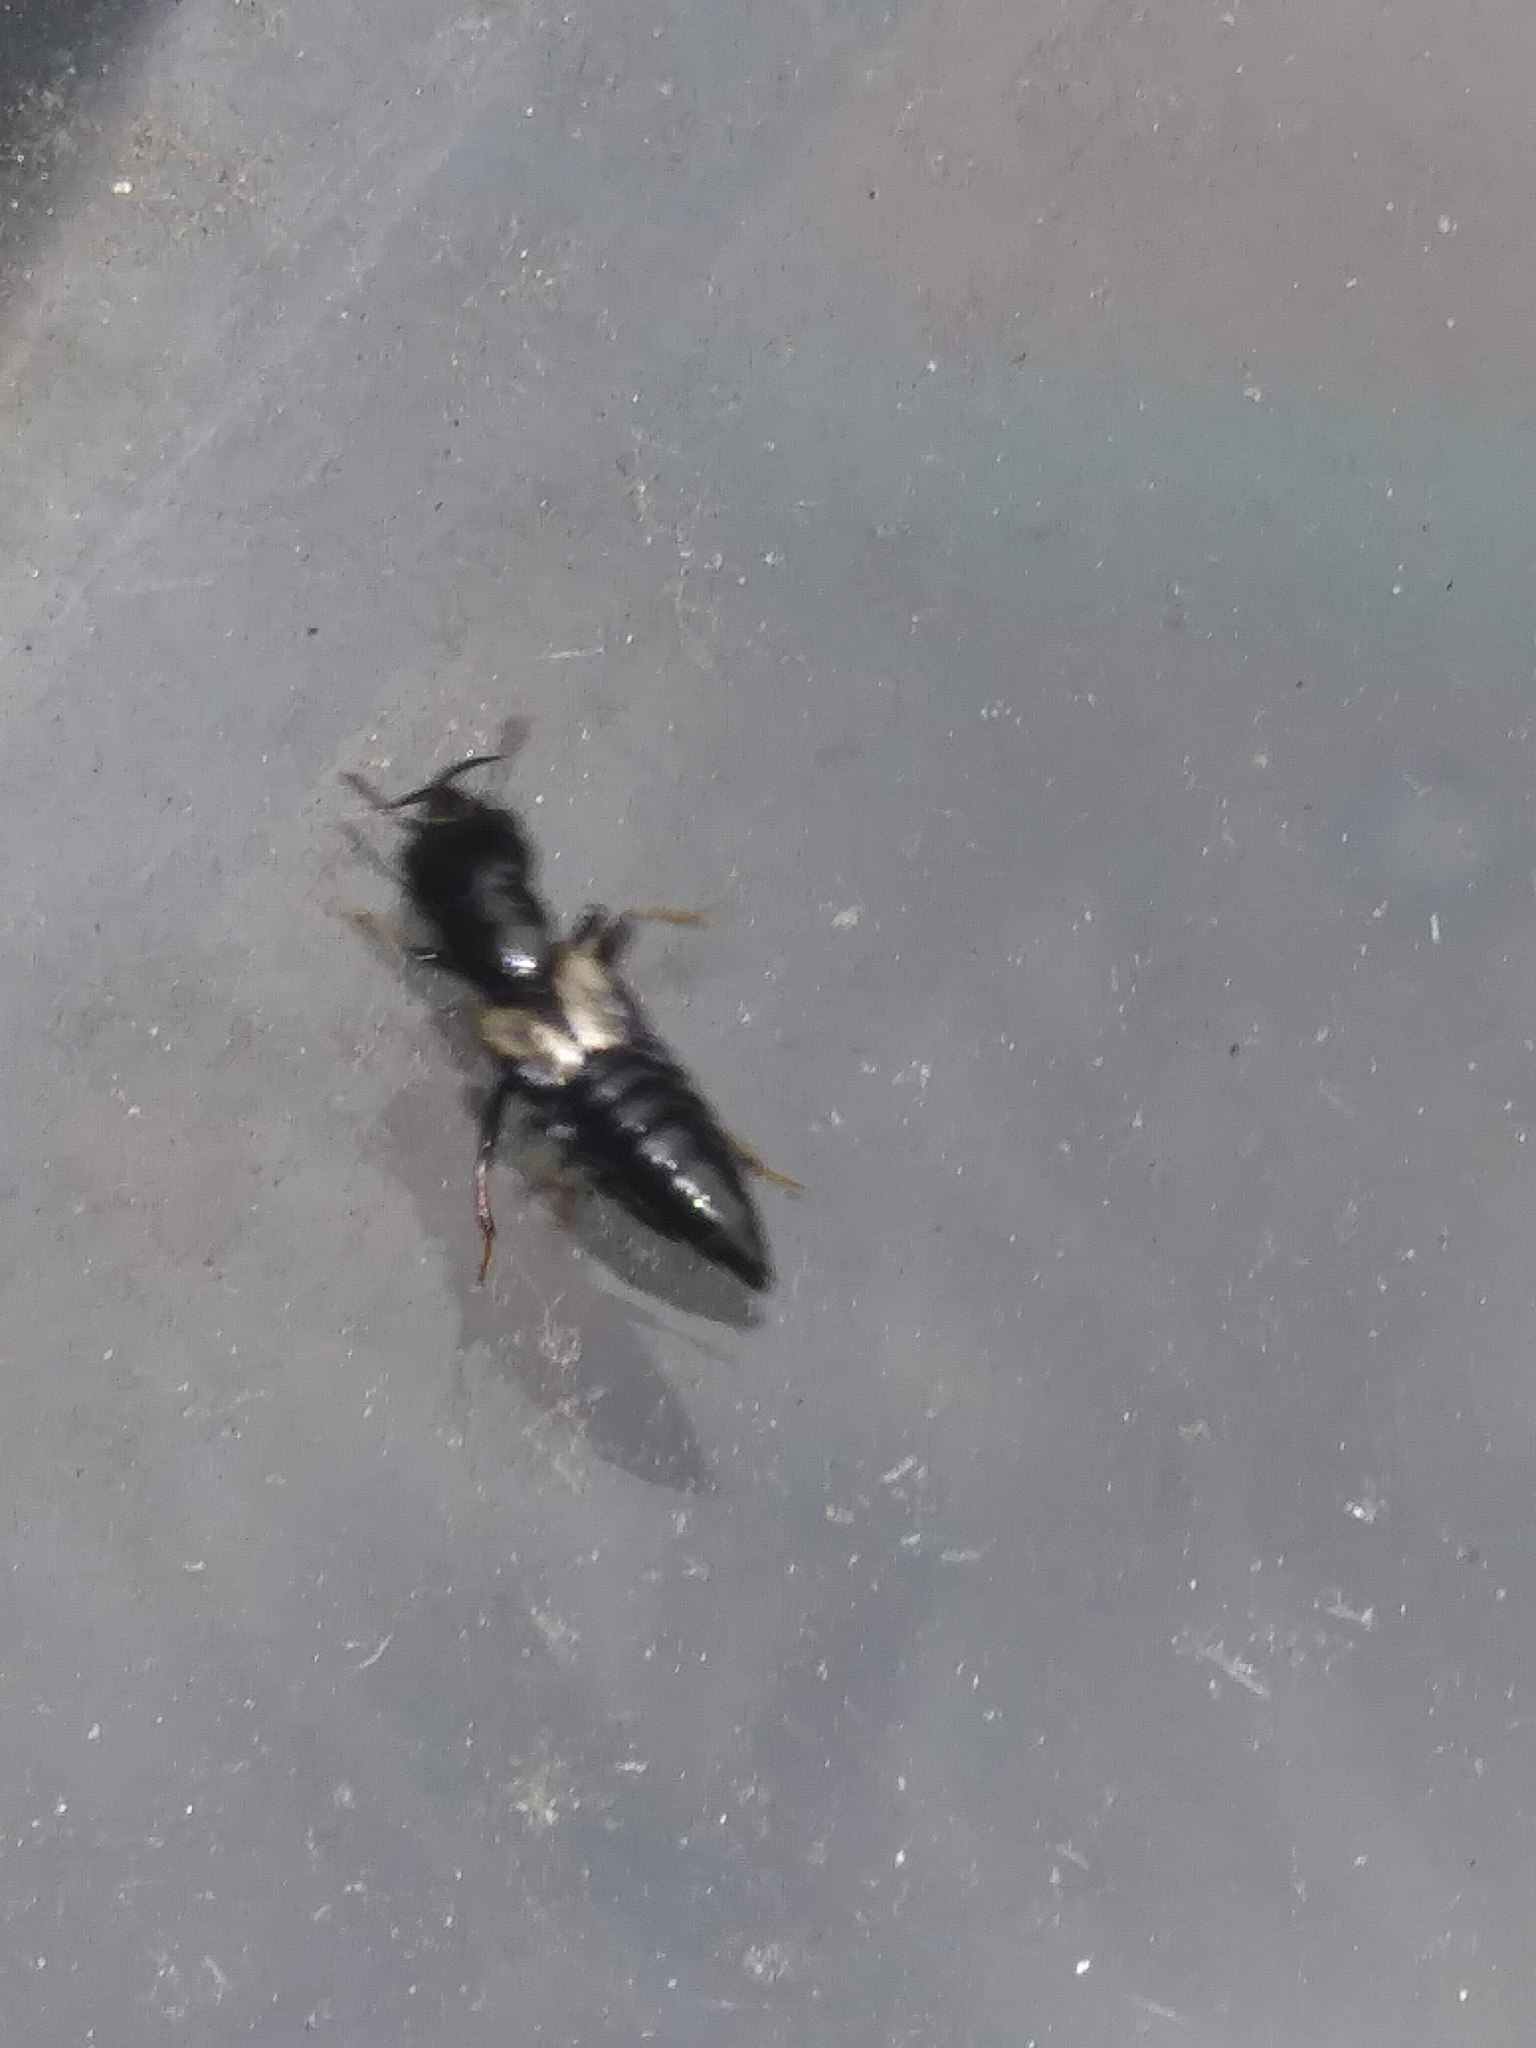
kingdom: Animalia
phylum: Arthropoda
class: Insecta
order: Coleoptera
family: Staphylinidae
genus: Oxyporus
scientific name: Oxyporus femoralis
